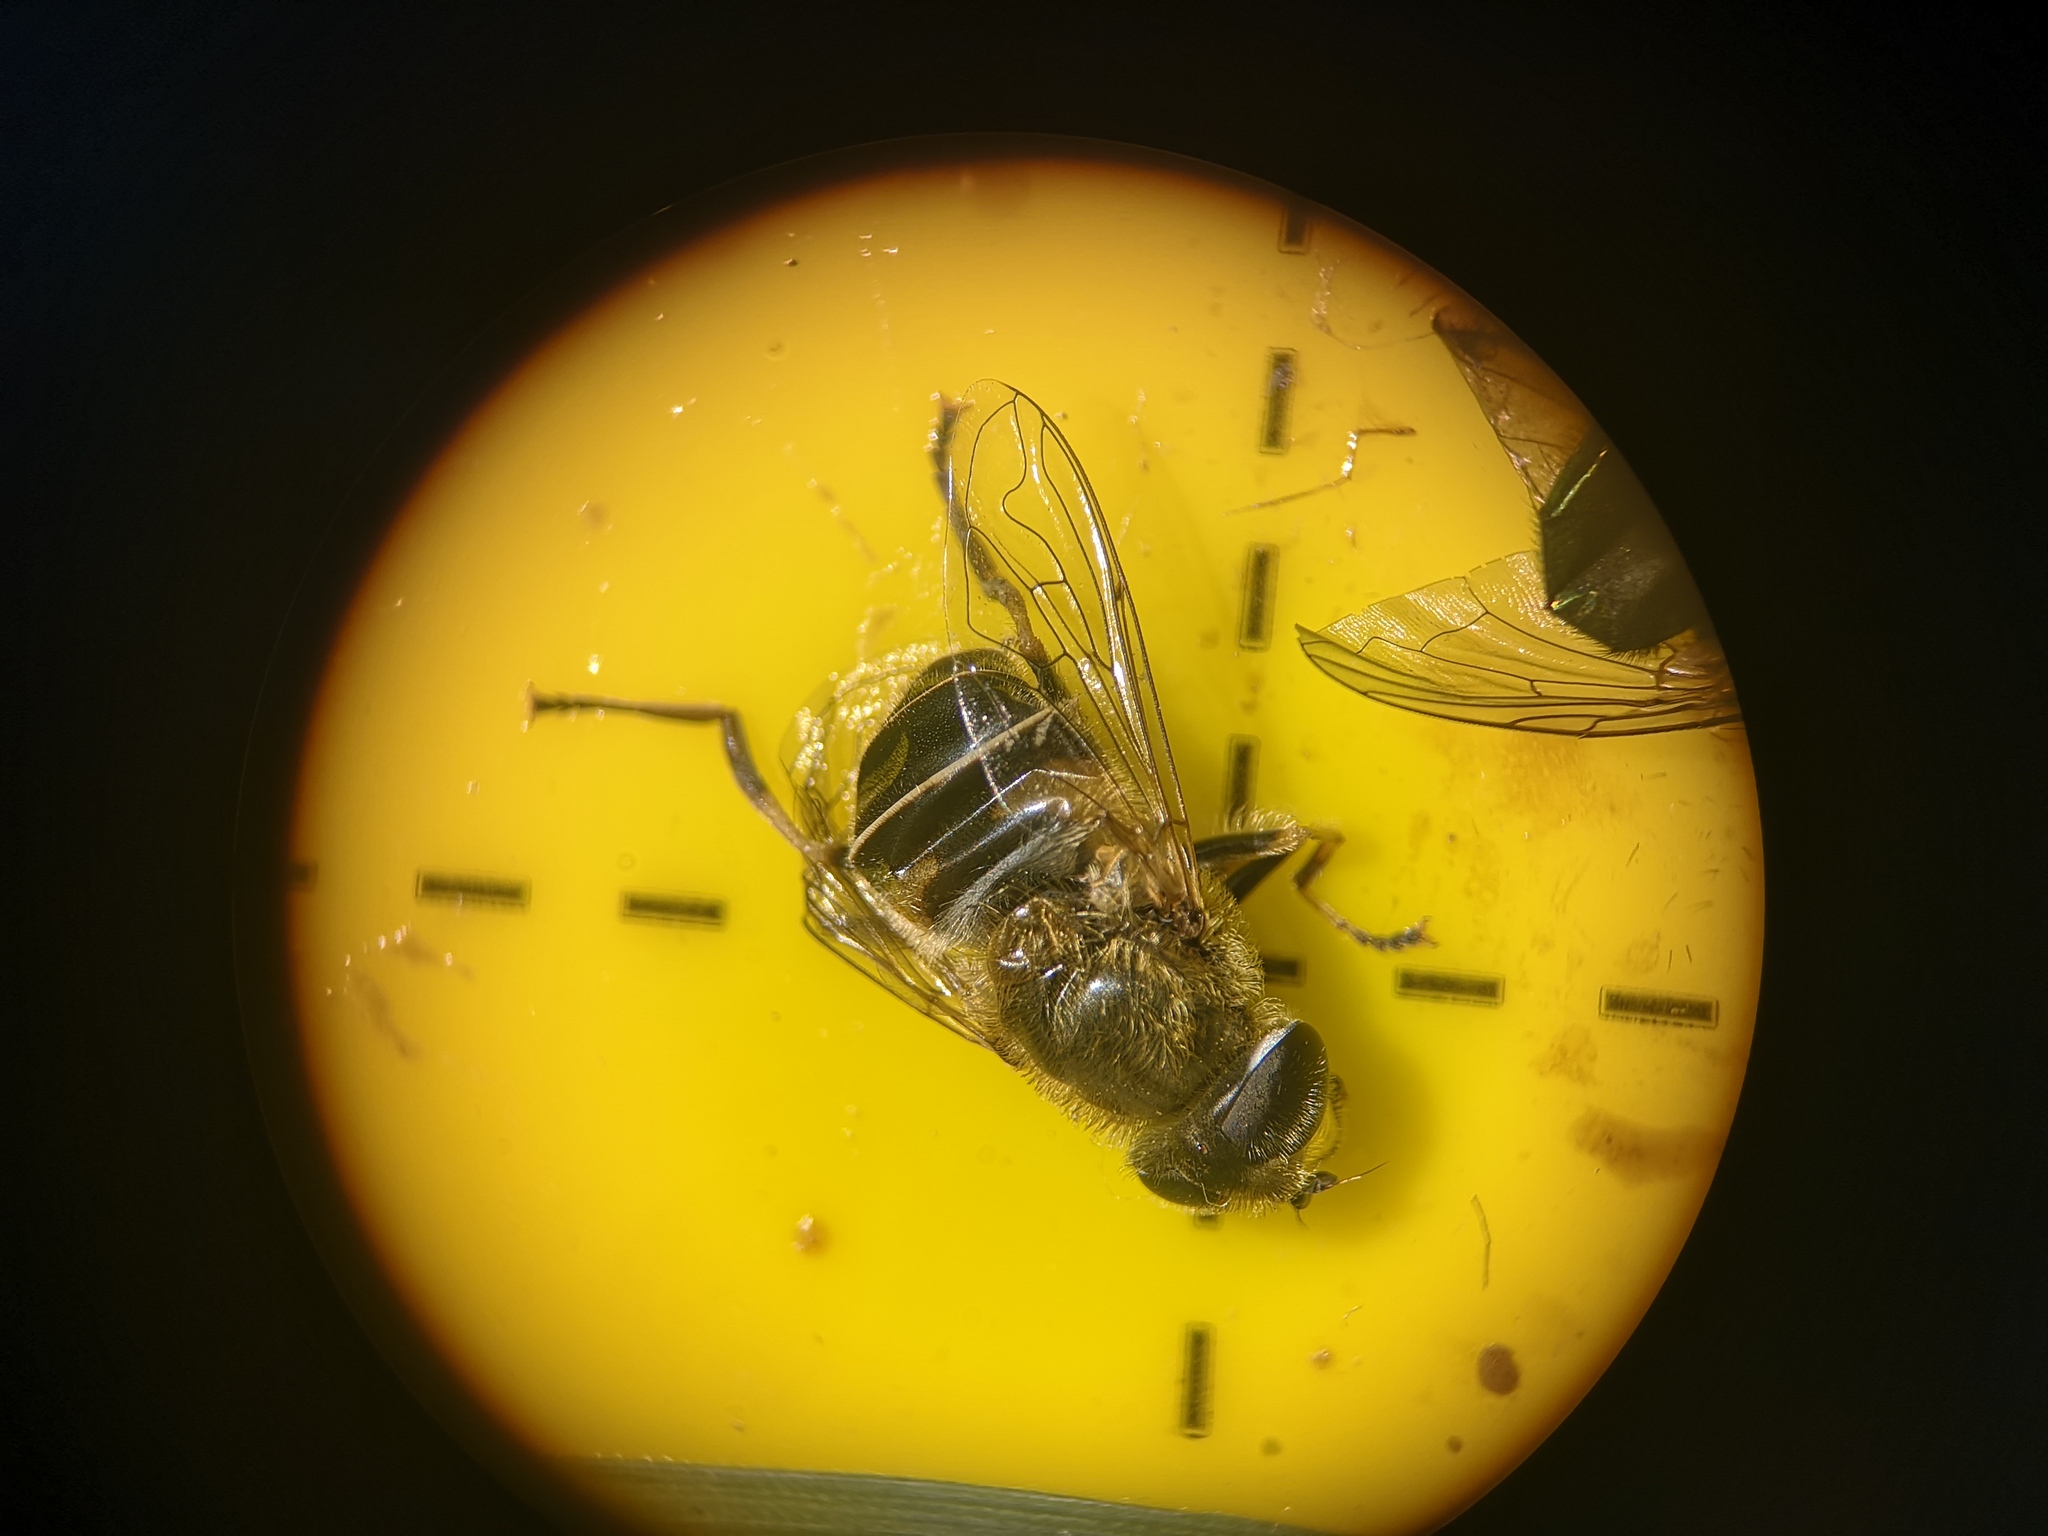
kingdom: Animalia
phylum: Arthropoda
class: Insecta
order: Diptera
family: Syrphidae
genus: Eristalis
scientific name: Eristalis nemorum
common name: Orange-spined drone fly
